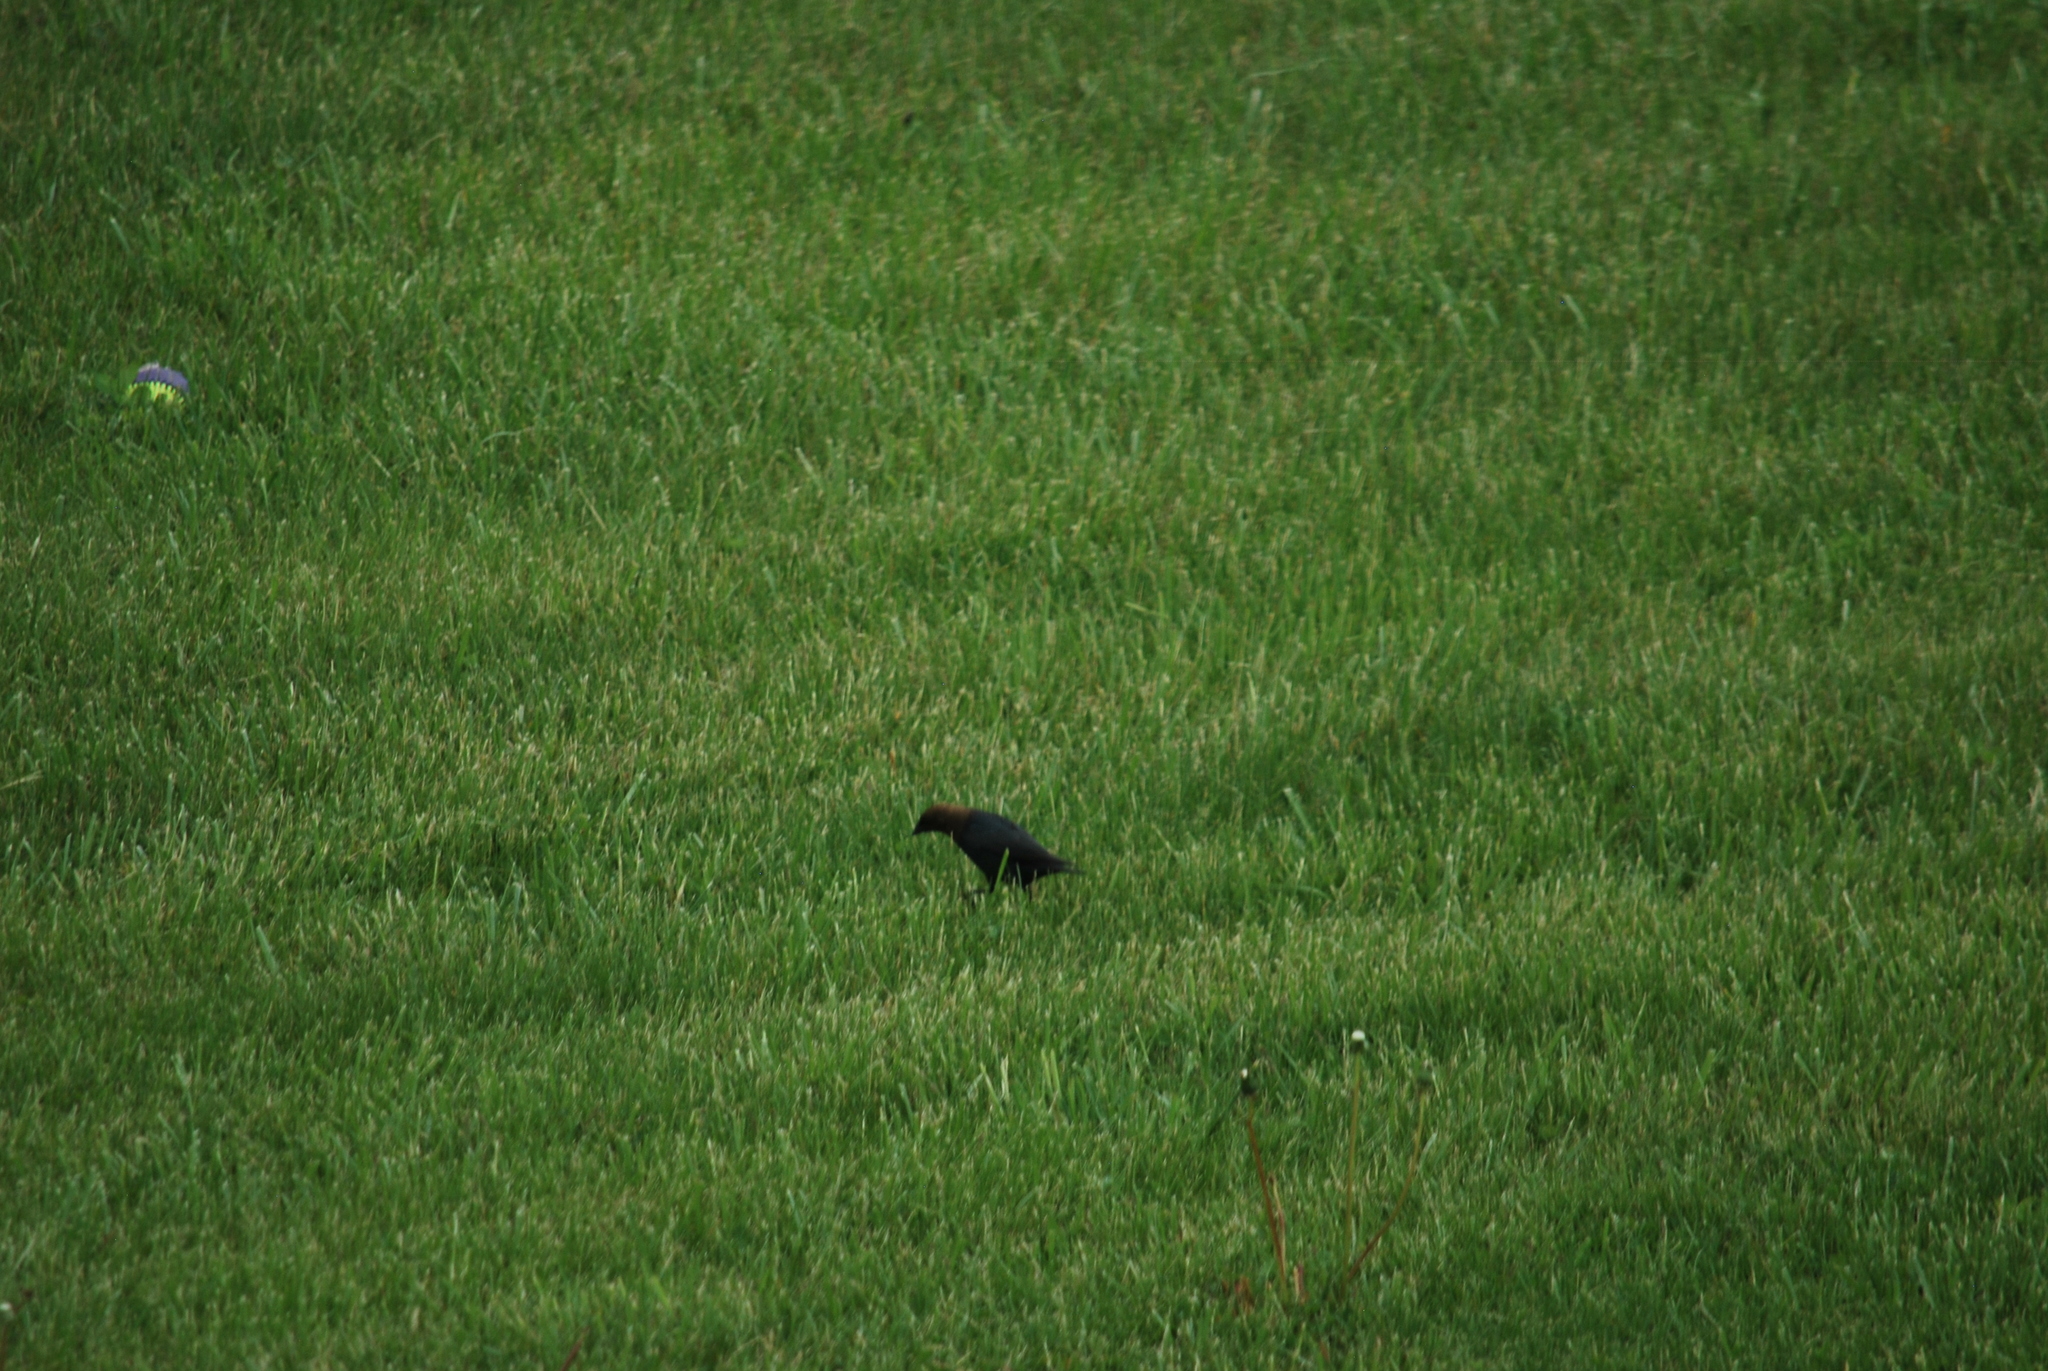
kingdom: Animalia
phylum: Chordata
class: Aves
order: Passeriformes
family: Icteridae
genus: Molothrus
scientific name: Molothrus ater
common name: Brown-headed cowbird
